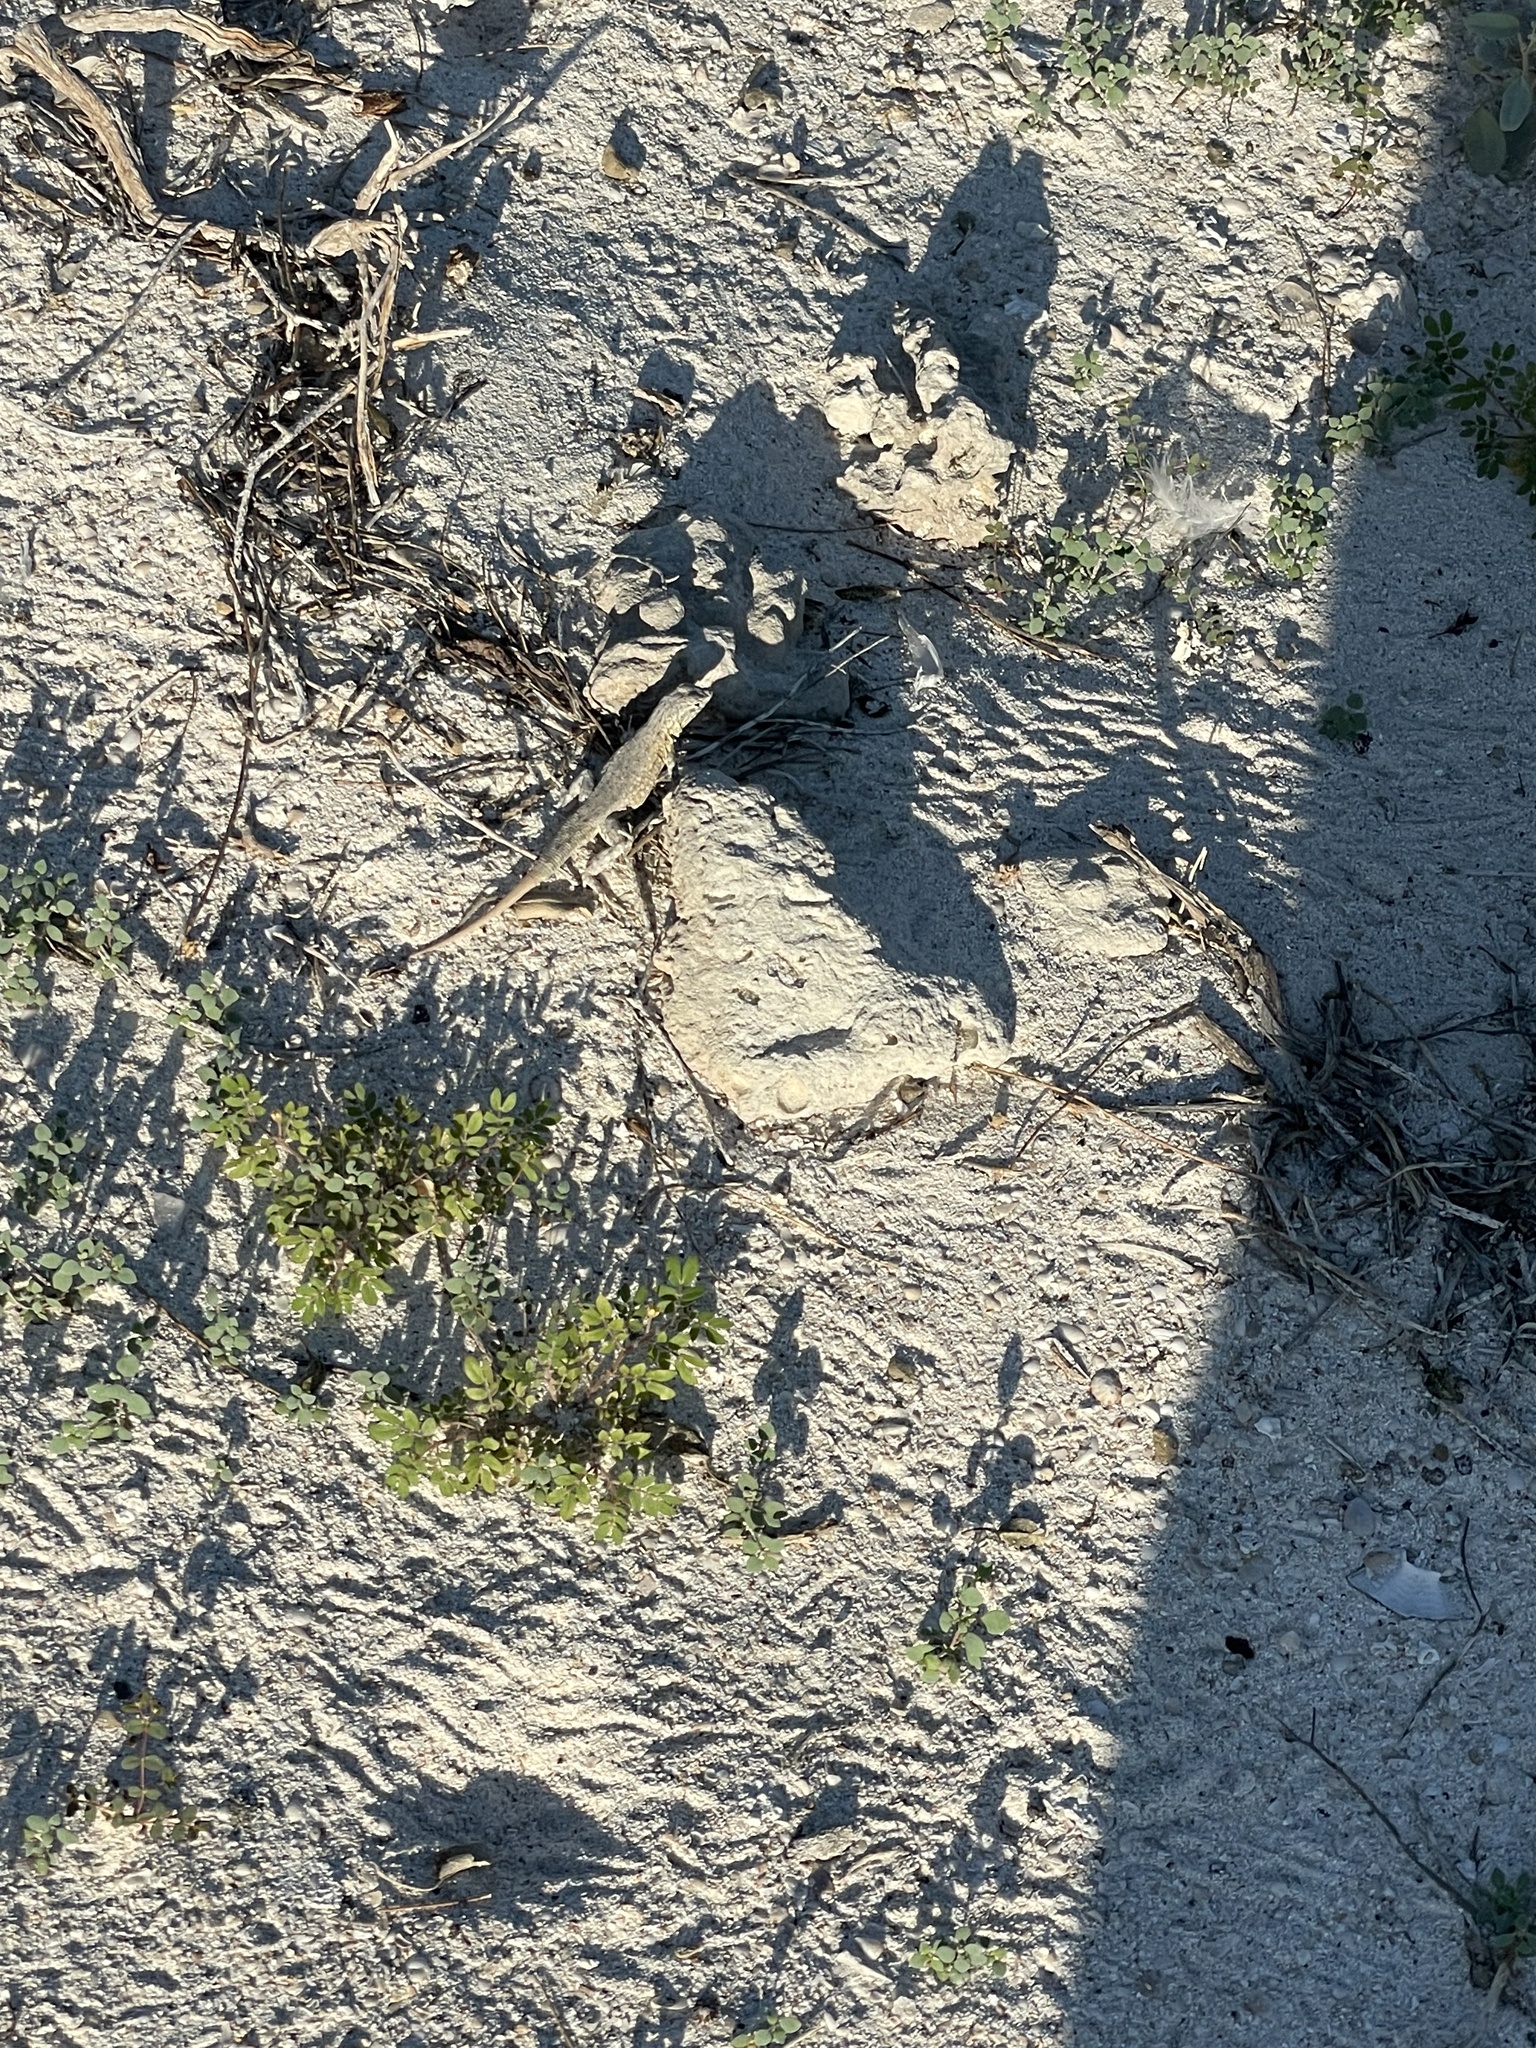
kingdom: Animalia
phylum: Chordata
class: Squamata
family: Phrynosomatidae
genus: Uta
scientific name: Uta stansburiana
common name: Side-blotched lizard
